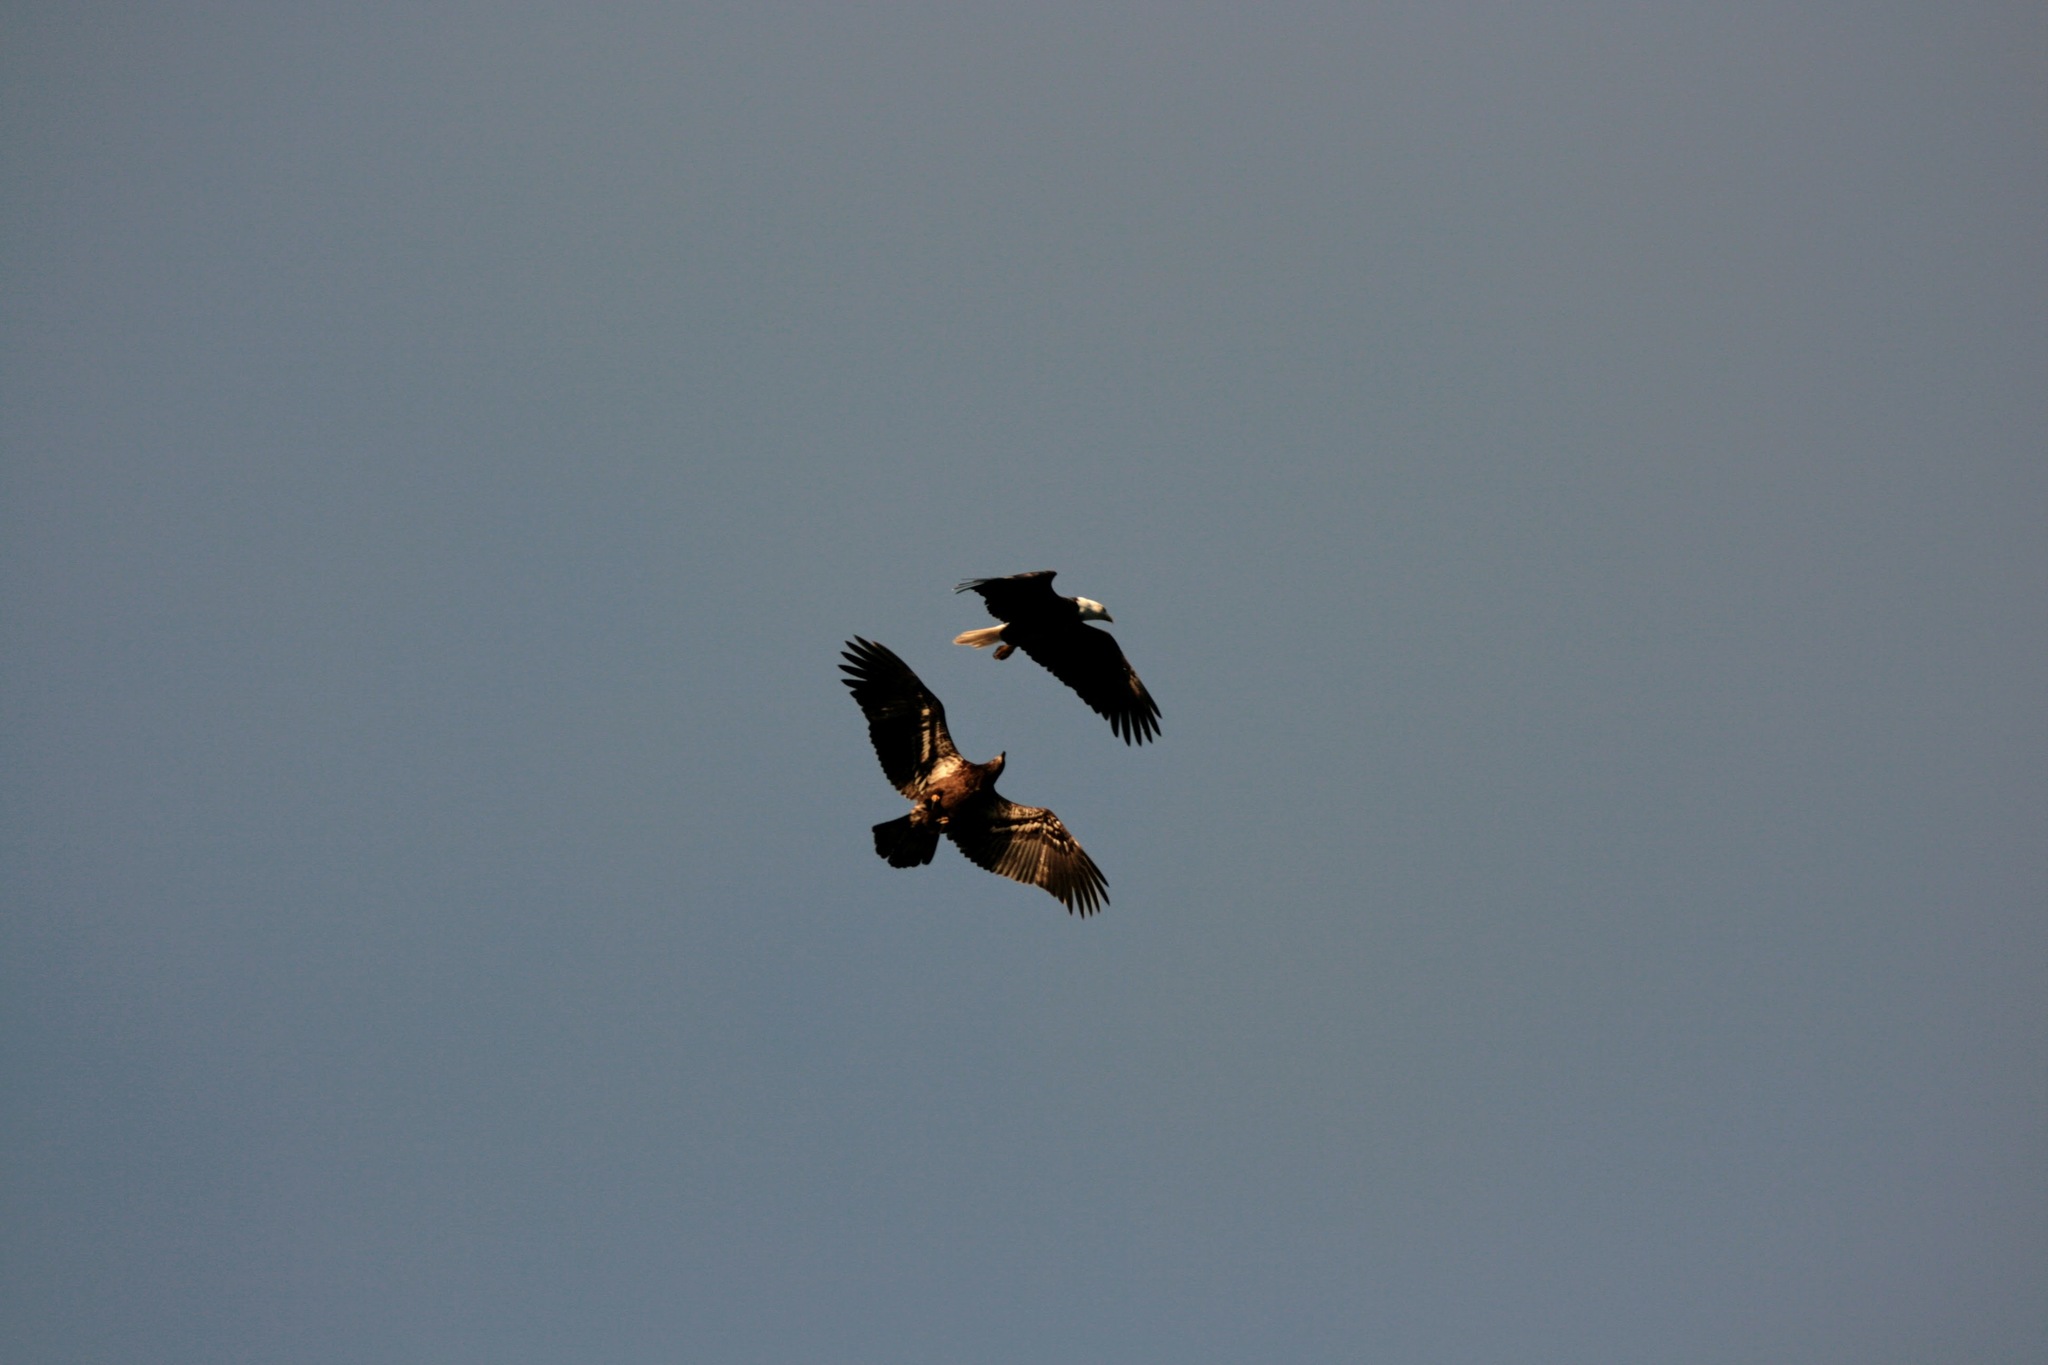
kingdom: Animalia
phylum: Chordata
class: Aves
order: Accipitriformes
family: Accipitridae
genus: Haliaeetus
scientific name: Haliaeetus leucocephalus
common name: Bald eagle
